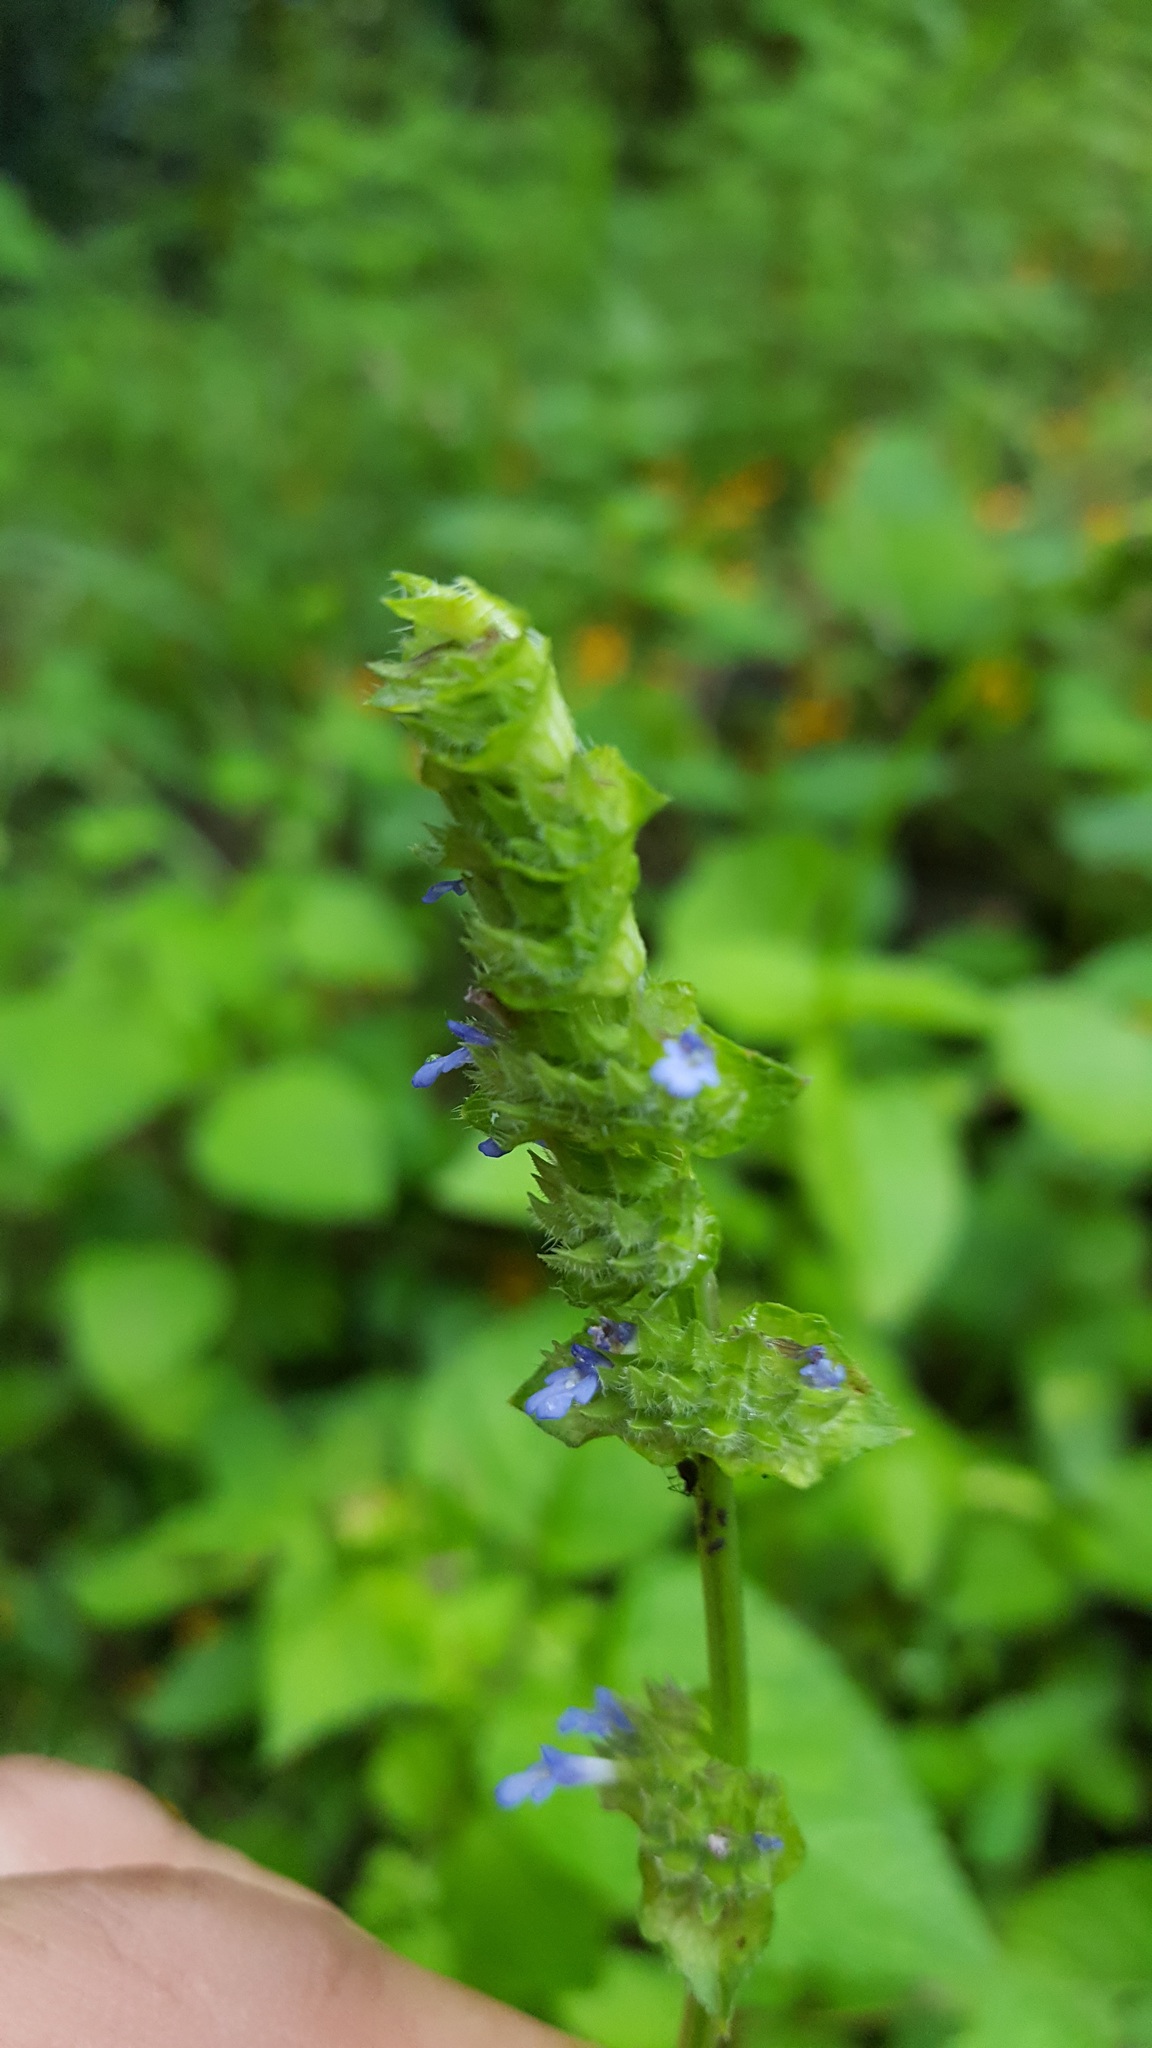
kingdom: Plantae
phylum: Tracheophyta
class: Magnoliopsida
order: Lamiales
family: Lamiaceae
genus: Salvia
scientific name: Salvia lasiocephala
